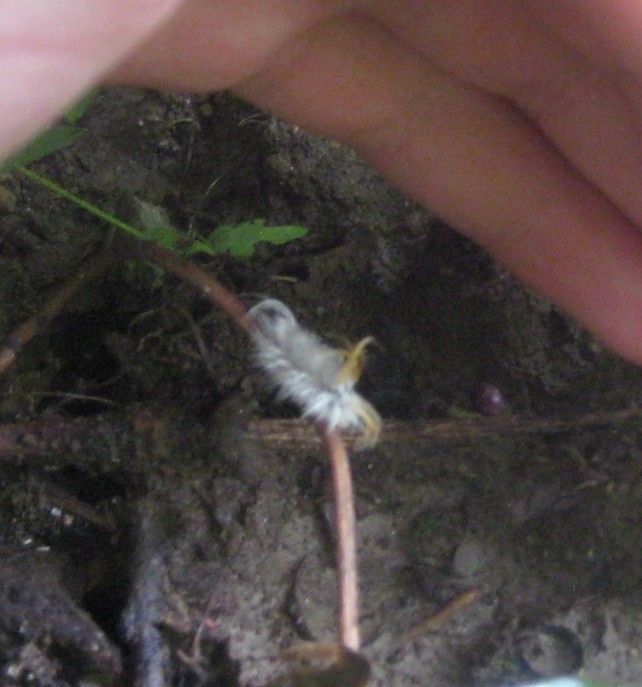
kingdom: Animalia
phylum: Arthropoda
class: Insecta
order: Lepidoptera
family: Erebidae
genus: Halysidota
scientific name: Halysidota harrisii
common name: Sycamore tussock moth
